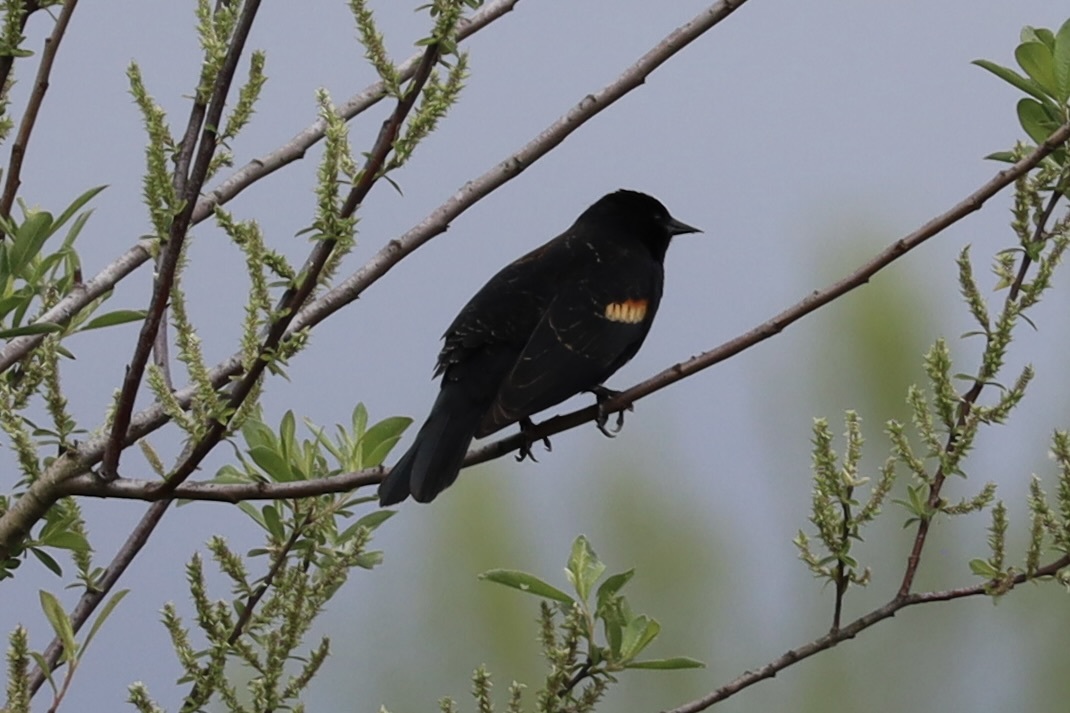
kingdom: Animalia
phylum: Chordata
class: Aves
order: Passeriformes
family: Icteridae
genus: Agelaius
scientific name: Agelaius phoeniceus
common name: Red-winged blackbird
